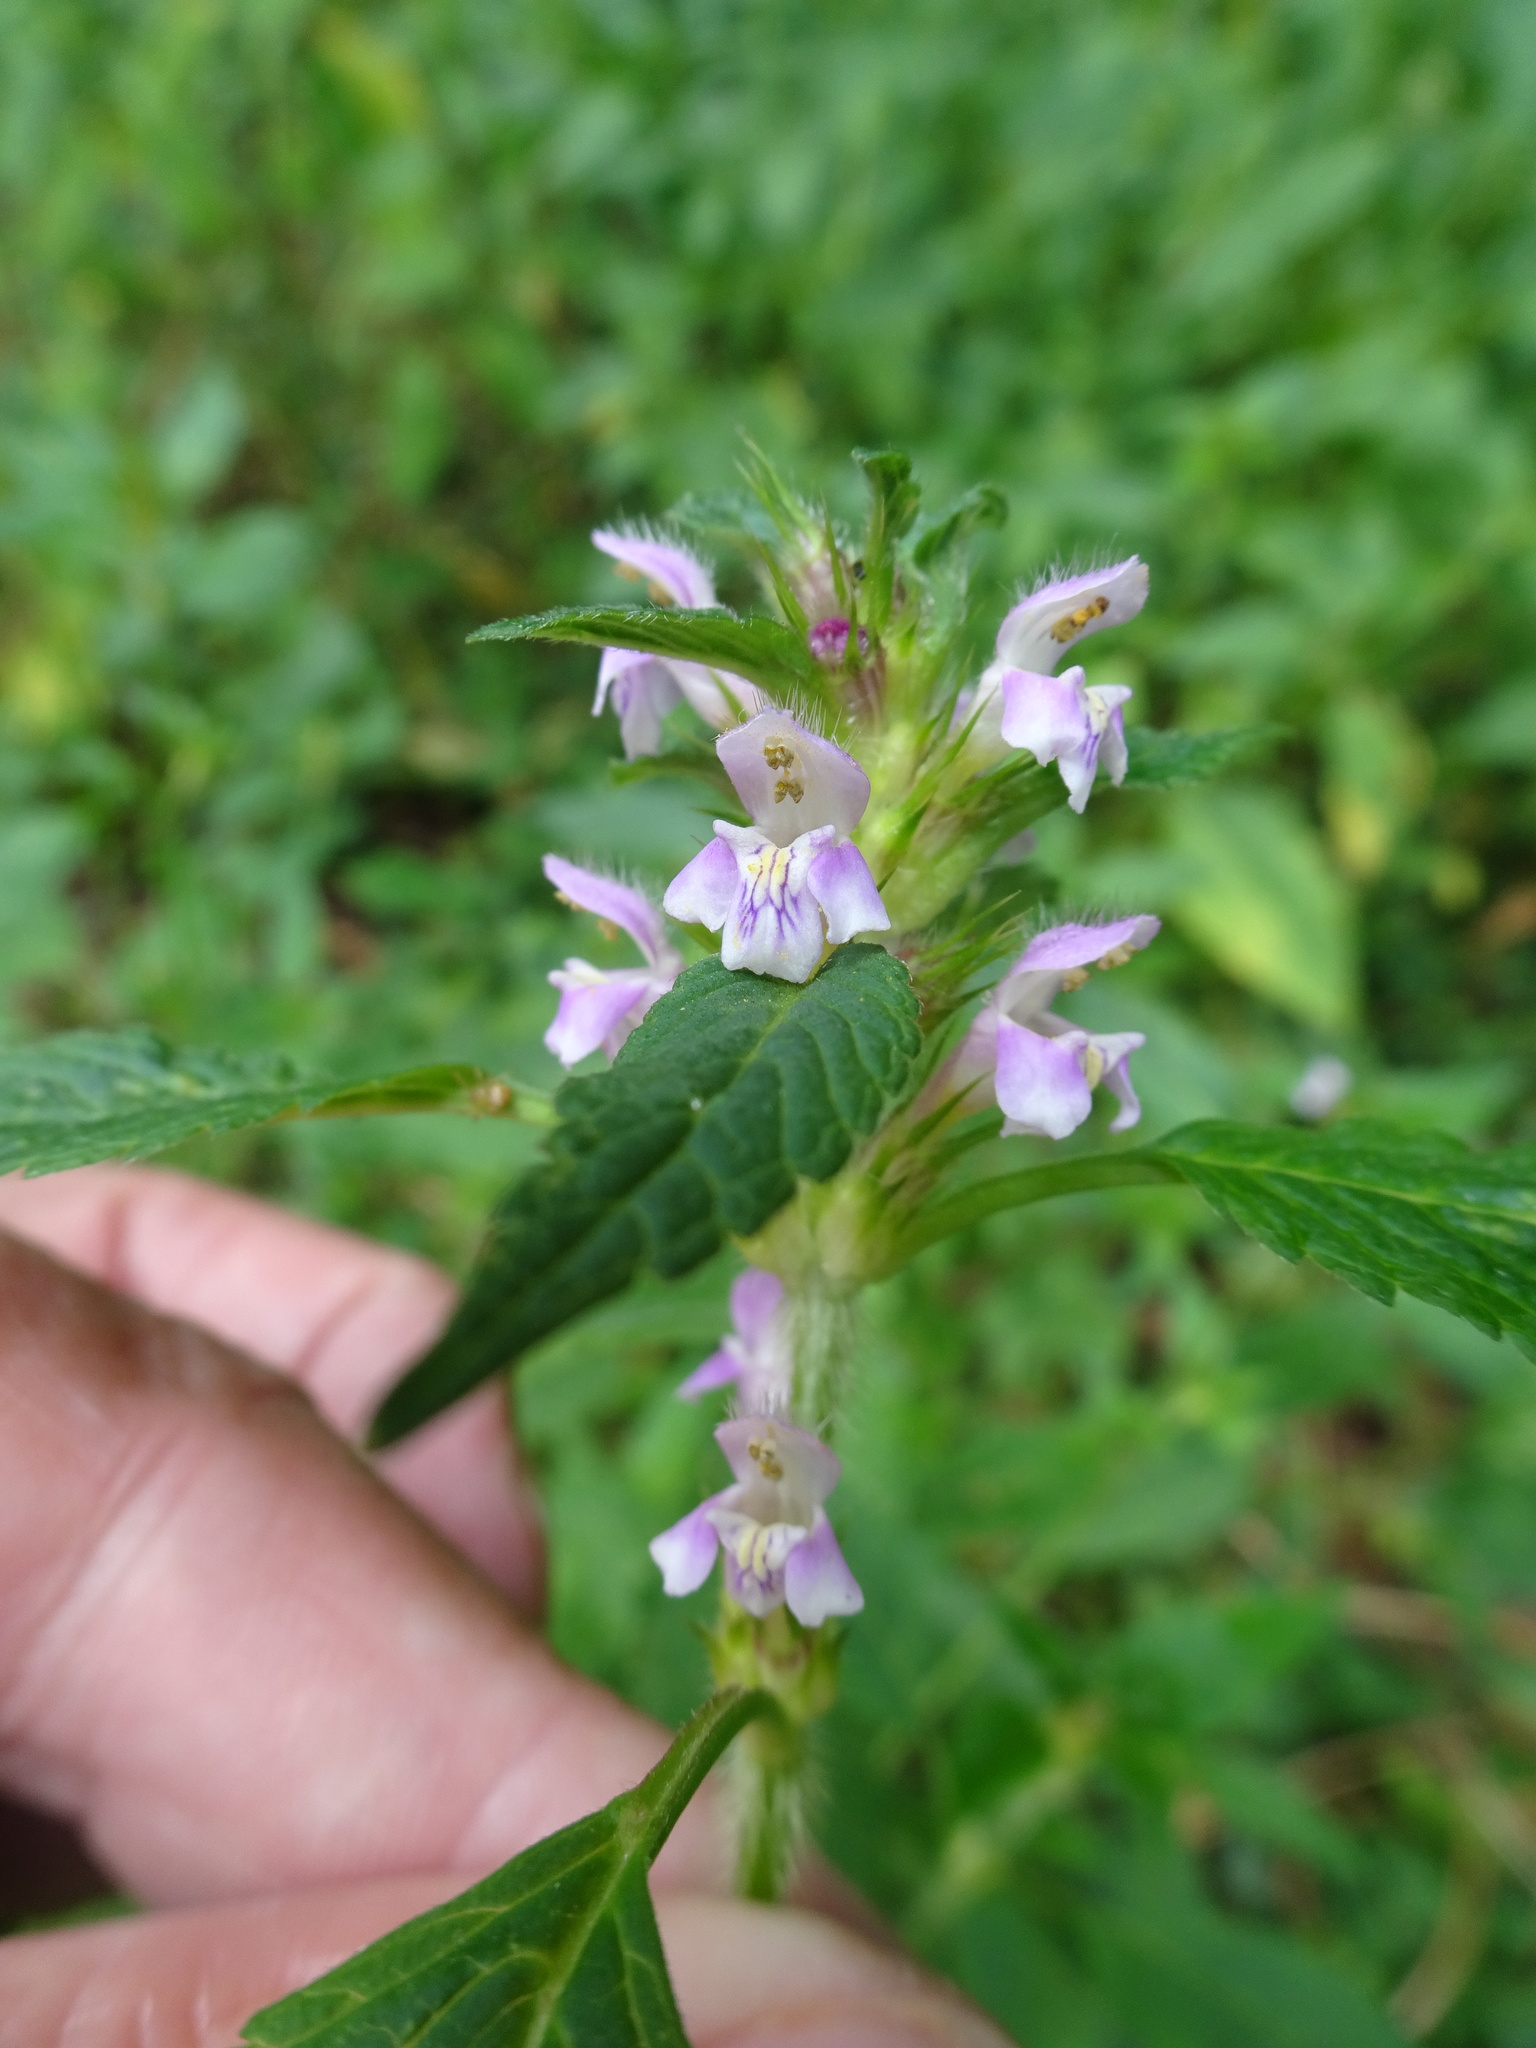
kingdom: Plantae
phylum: Tracheophyta
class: Magnoliopsida
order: Lamiales
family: Lamiaceae
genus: Galeopsis
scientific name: Galeopsis tetrahit
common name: Common hemp-nettle
